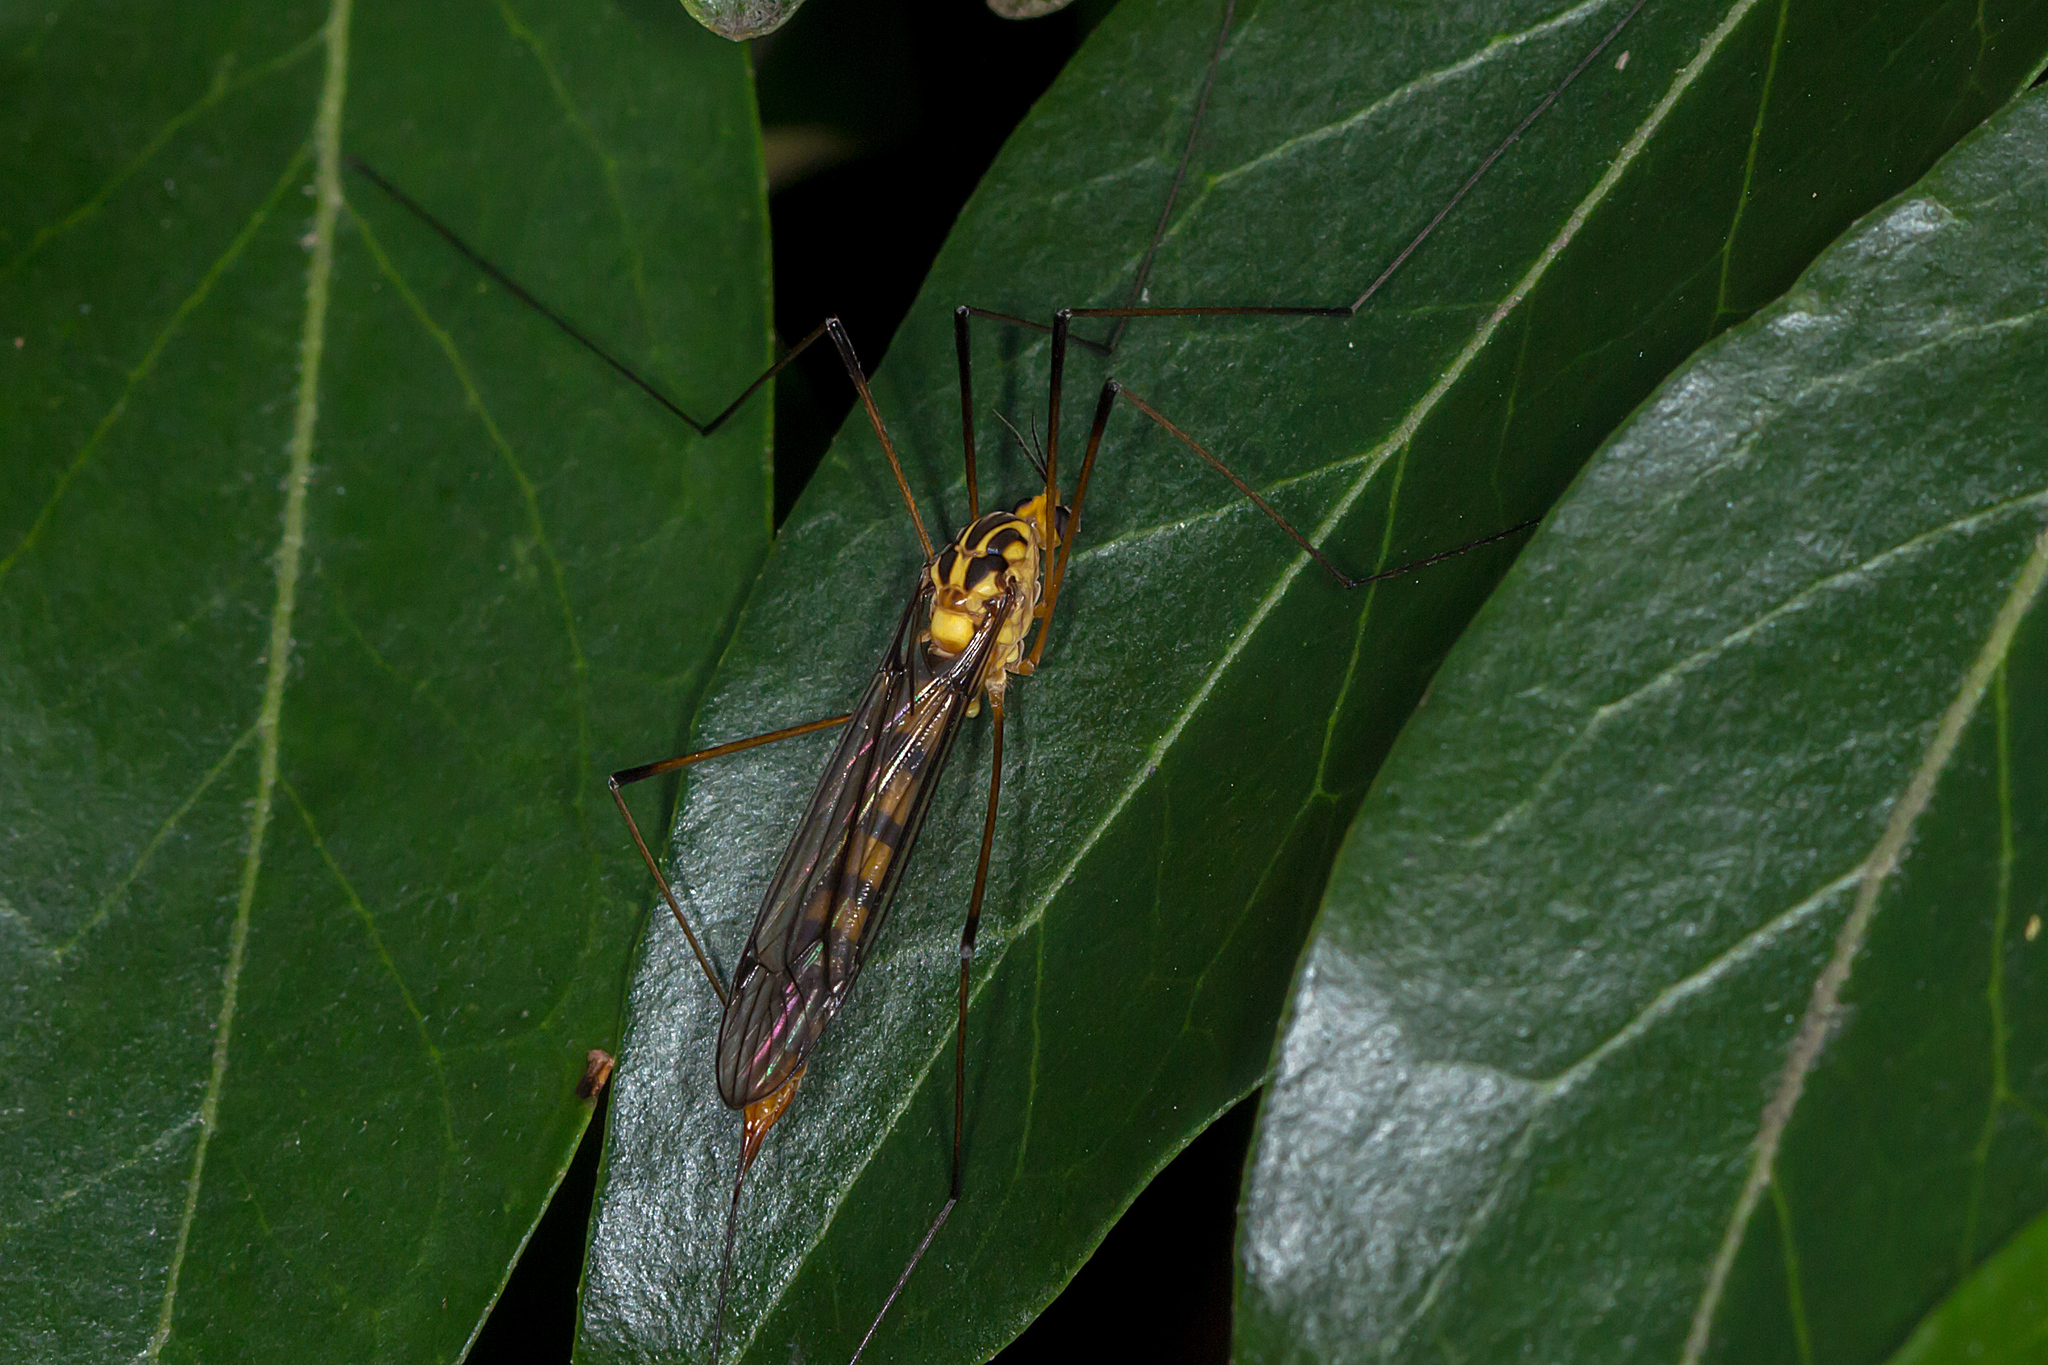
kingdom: Animalia
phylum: Arthropoda
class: Insecta
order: Diptera
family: Tipulidae
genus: Nephrotoma
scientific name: Nephrotoma australasiae
